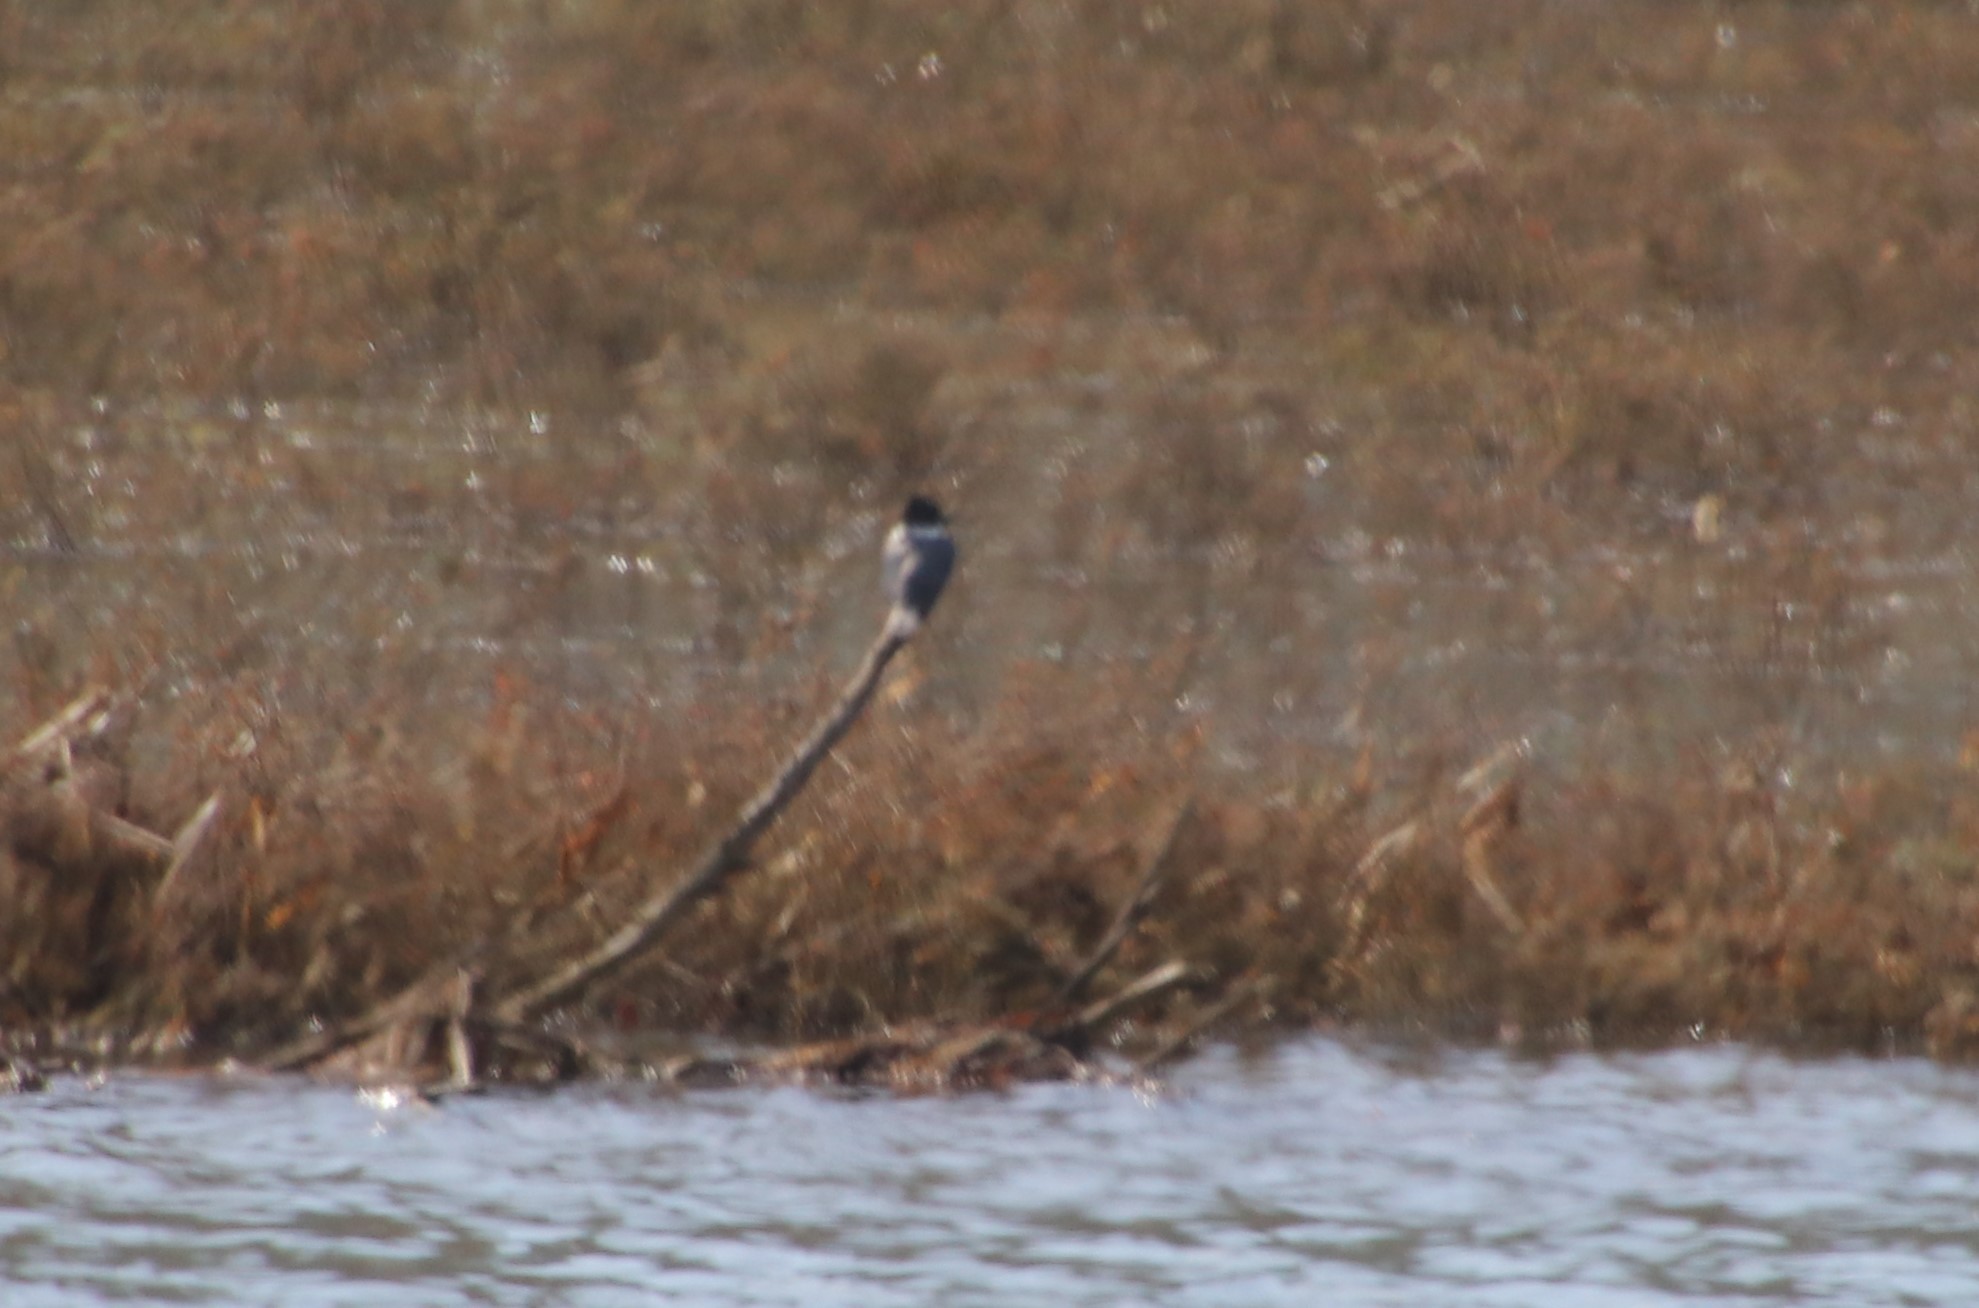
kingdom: Animalia
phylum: Chordata
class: Aves
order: Coraciiformes
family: Alcedinidae
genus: Megaceryle
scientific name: Megaceryle alcyon
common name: Belted kingfisher
